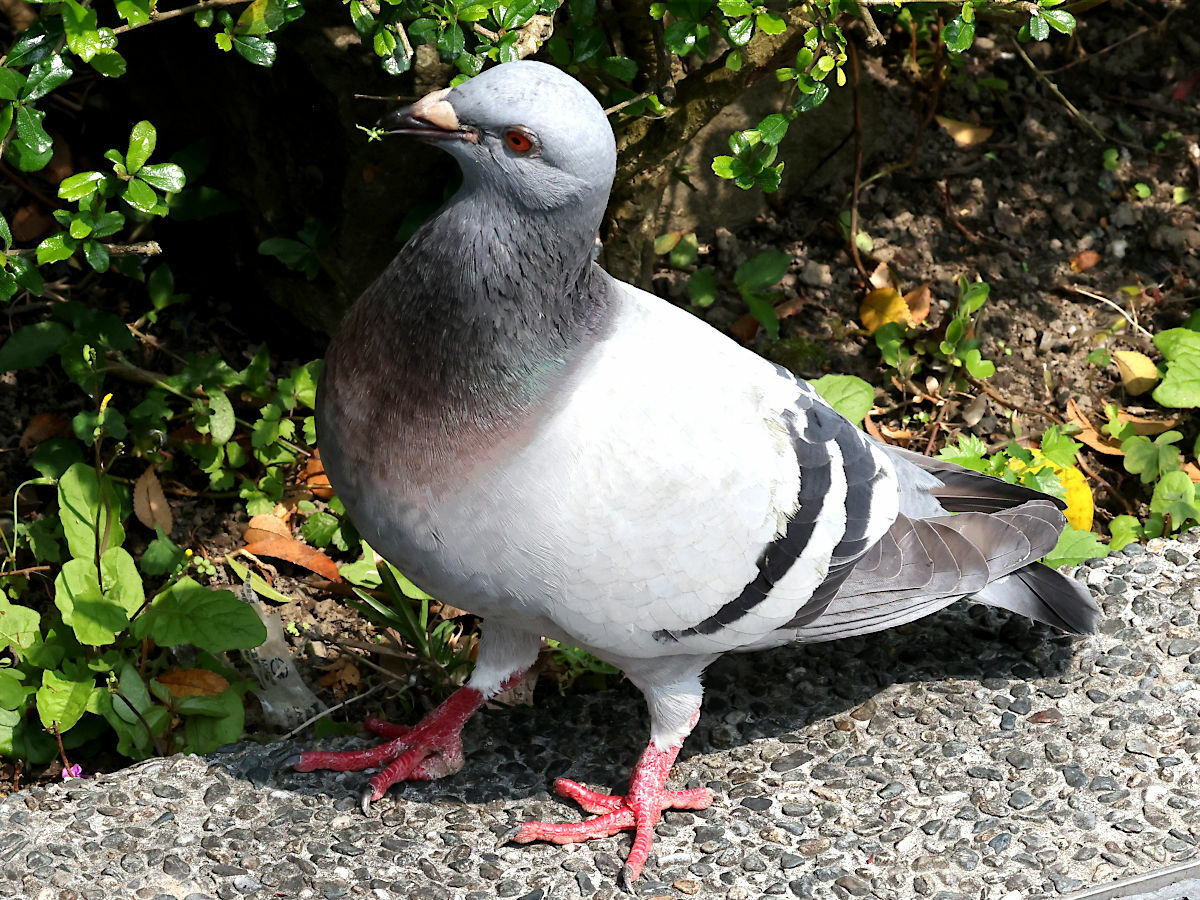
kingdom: Animalia
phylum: Chordata
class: Aves
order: Columbiformes
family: Columbidae
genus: Columba
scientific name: Columba livia
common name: Rock pigeon
